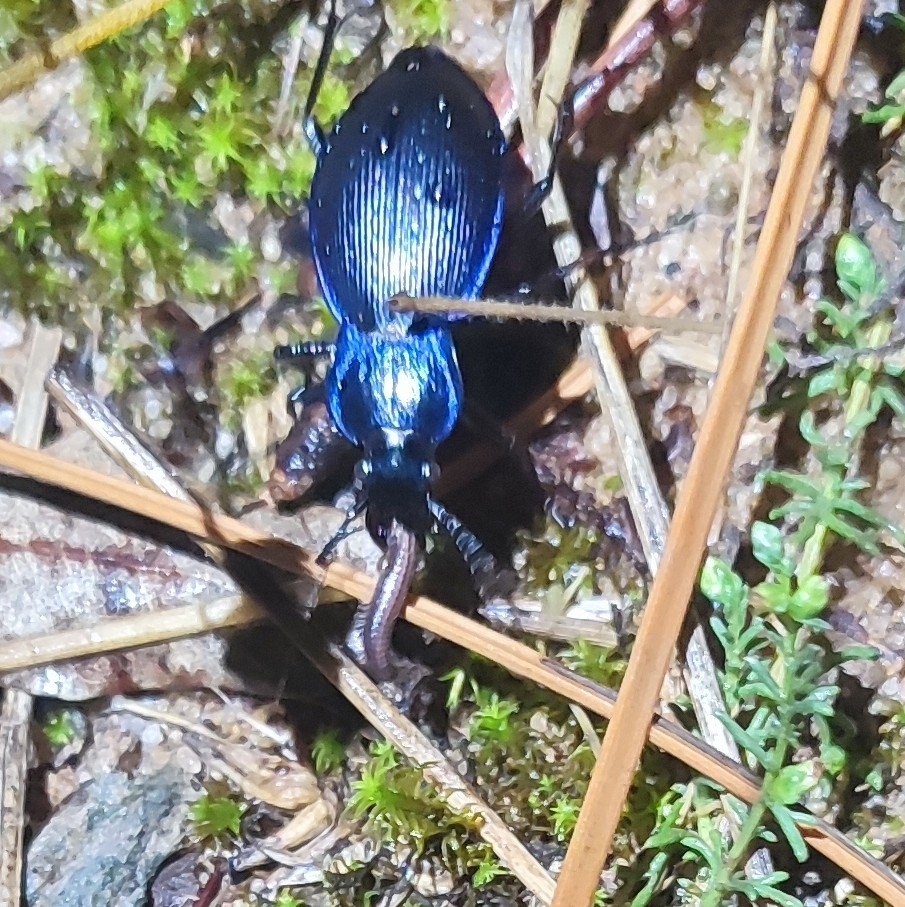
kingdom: Animalia
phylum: Arthropoda
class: Insecta
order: Coleoptera
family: Carabidae
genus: Carabus
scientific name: Carabus problematicus
